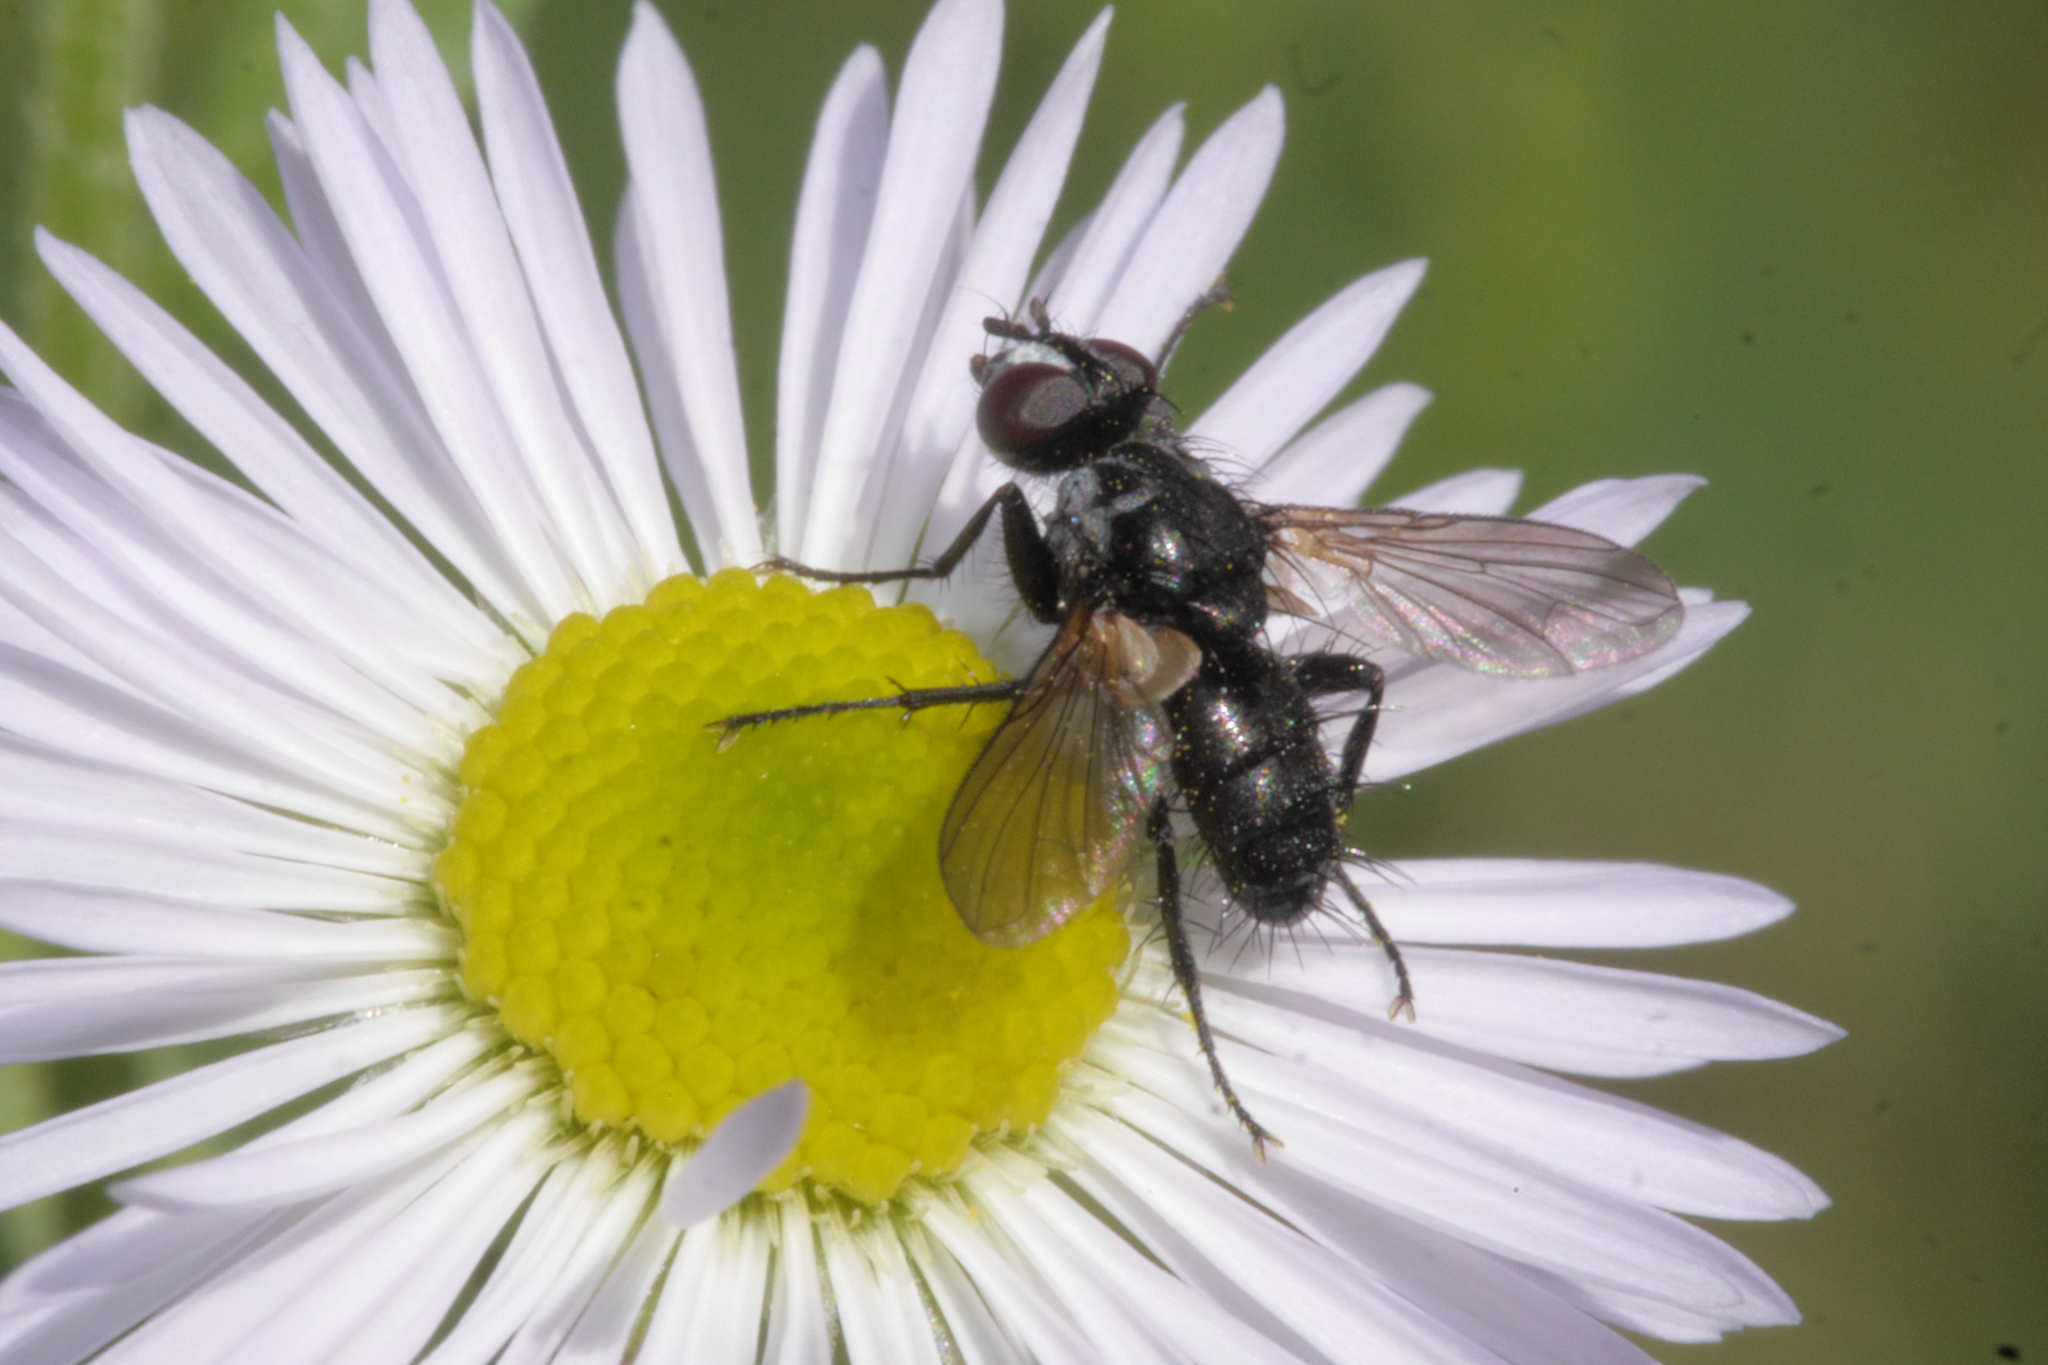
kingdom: Animalia
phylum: Arthropoda
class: Insecta
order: Diptera
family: Tachinidae
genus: Phania
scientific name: Phania funesta
